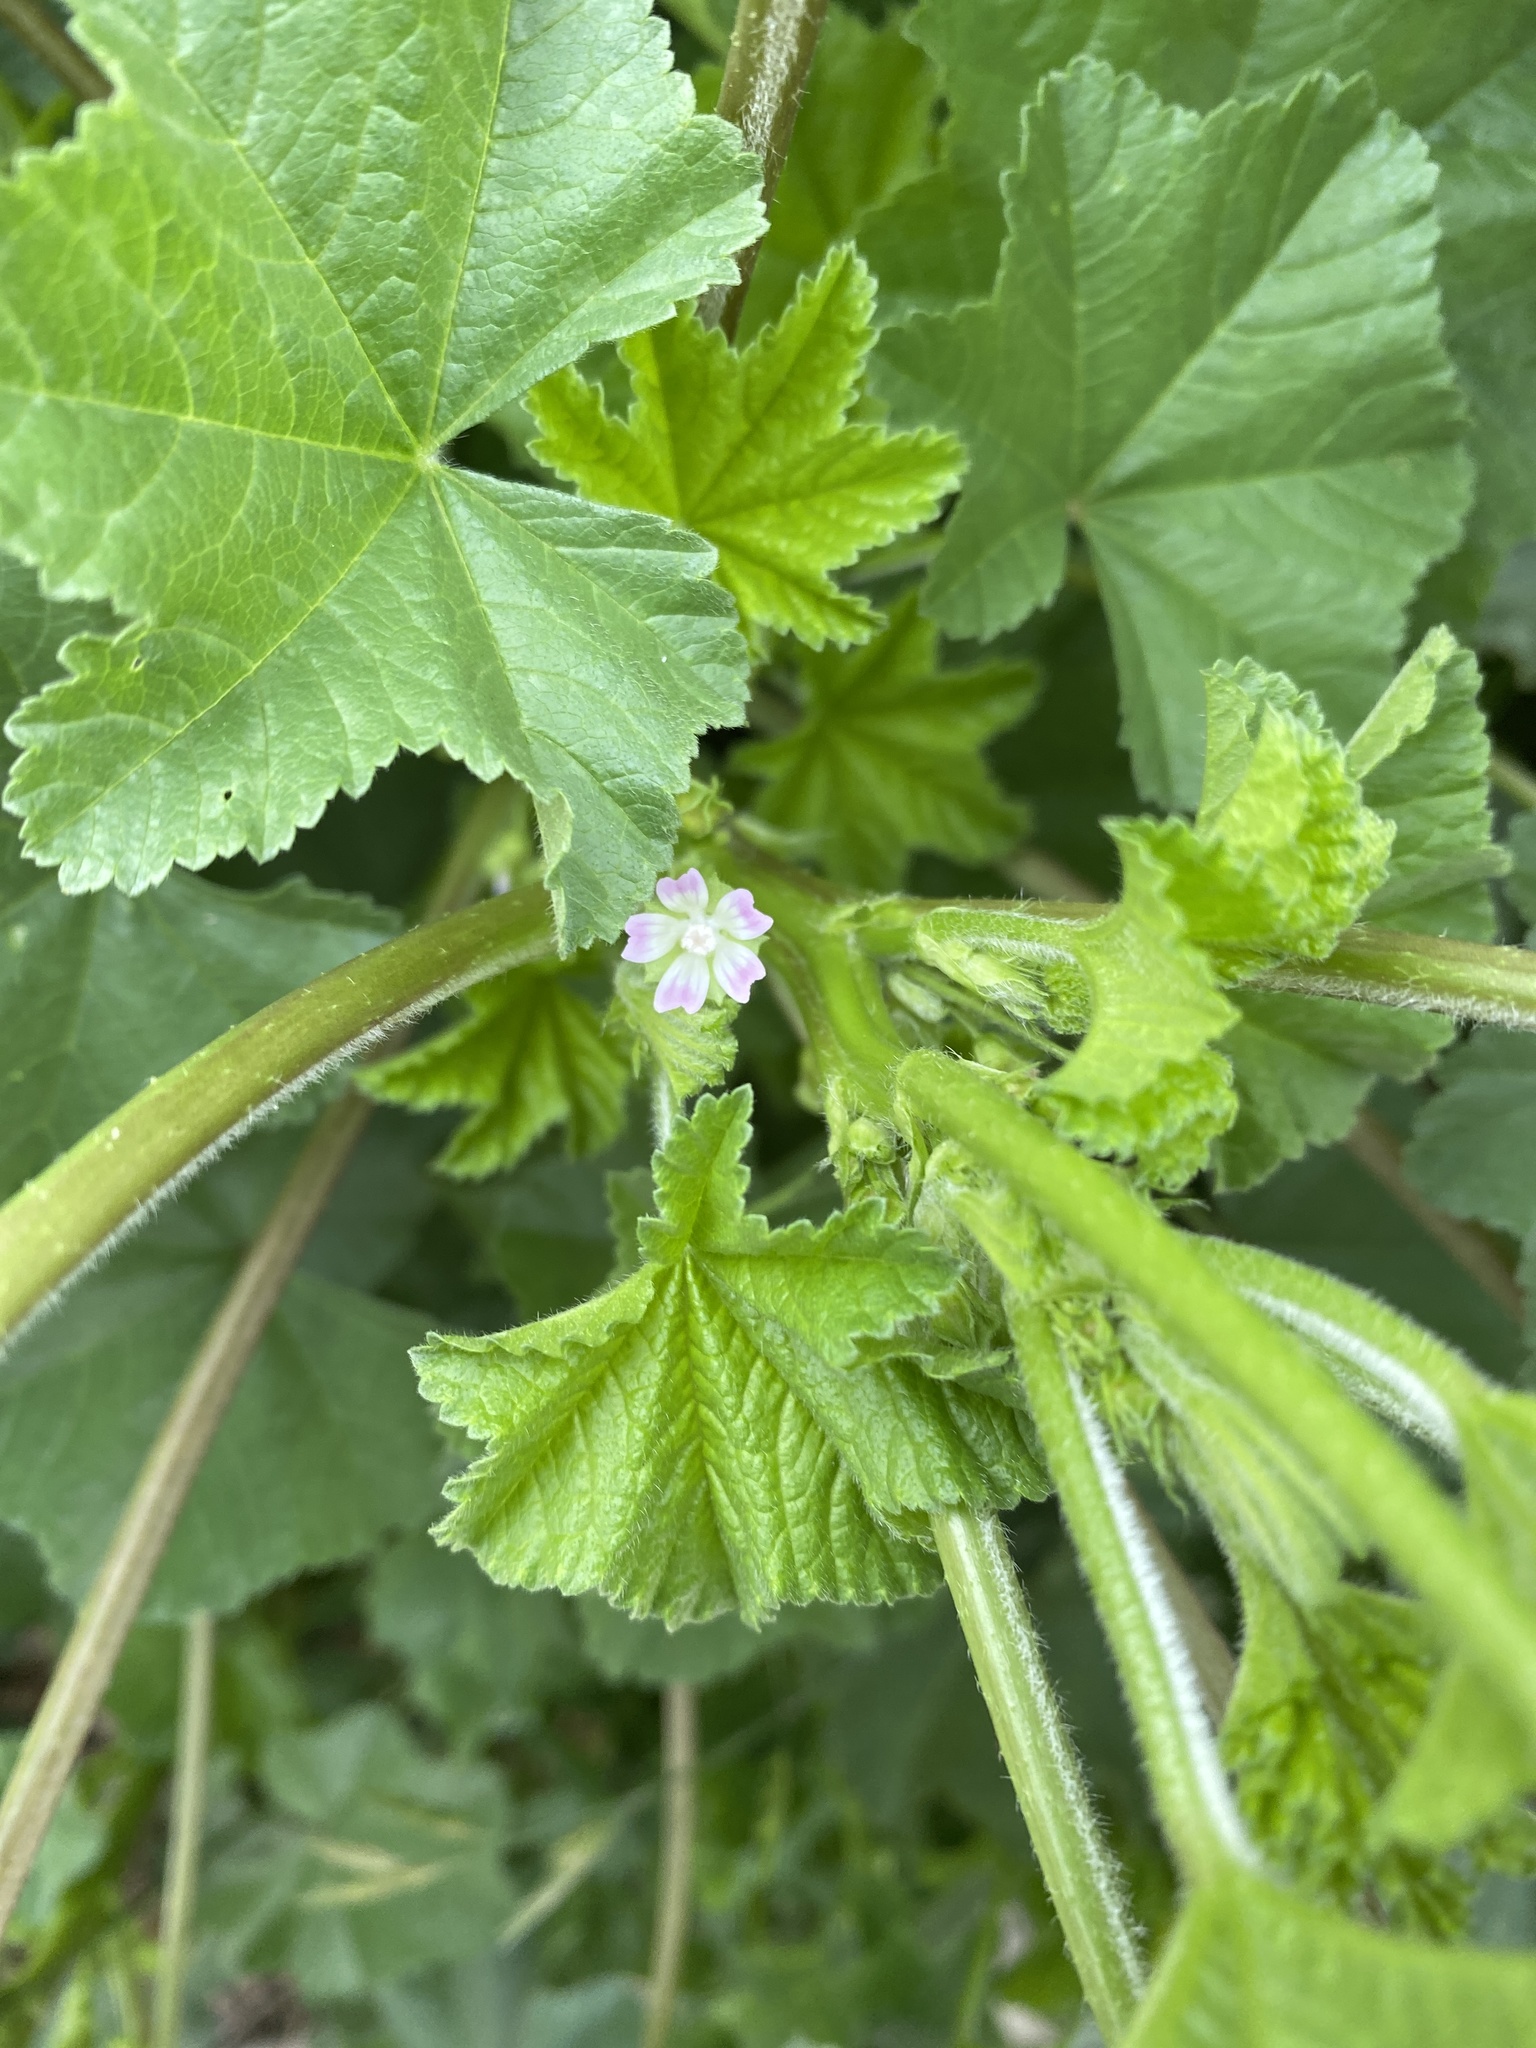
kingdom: Plantae
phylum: Tracheophyta
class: Magnoliopsida
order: Malvales
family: Malvaceae
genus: Malva
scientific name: Malva parviflora
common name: Least mallow
